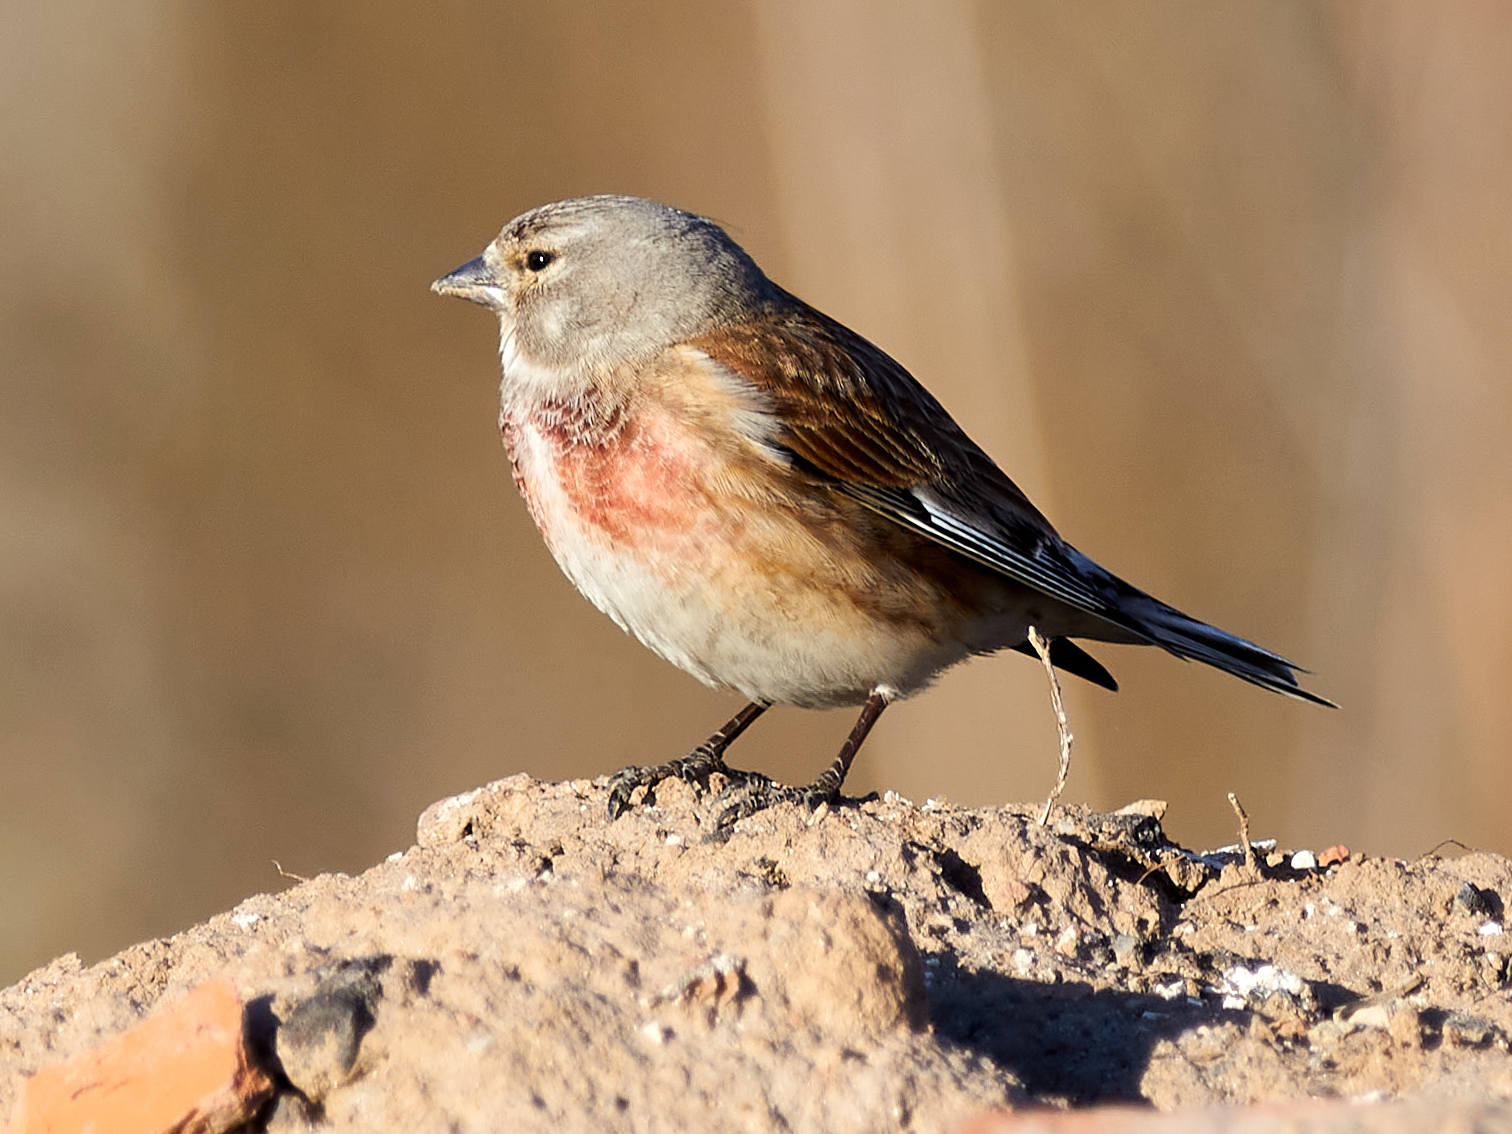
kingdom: Animalia
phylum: Chordata
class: Aves
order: Passeriformes
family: Fringillidae
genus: Linaria
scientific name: Linaria cannabina
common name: Common linnet
